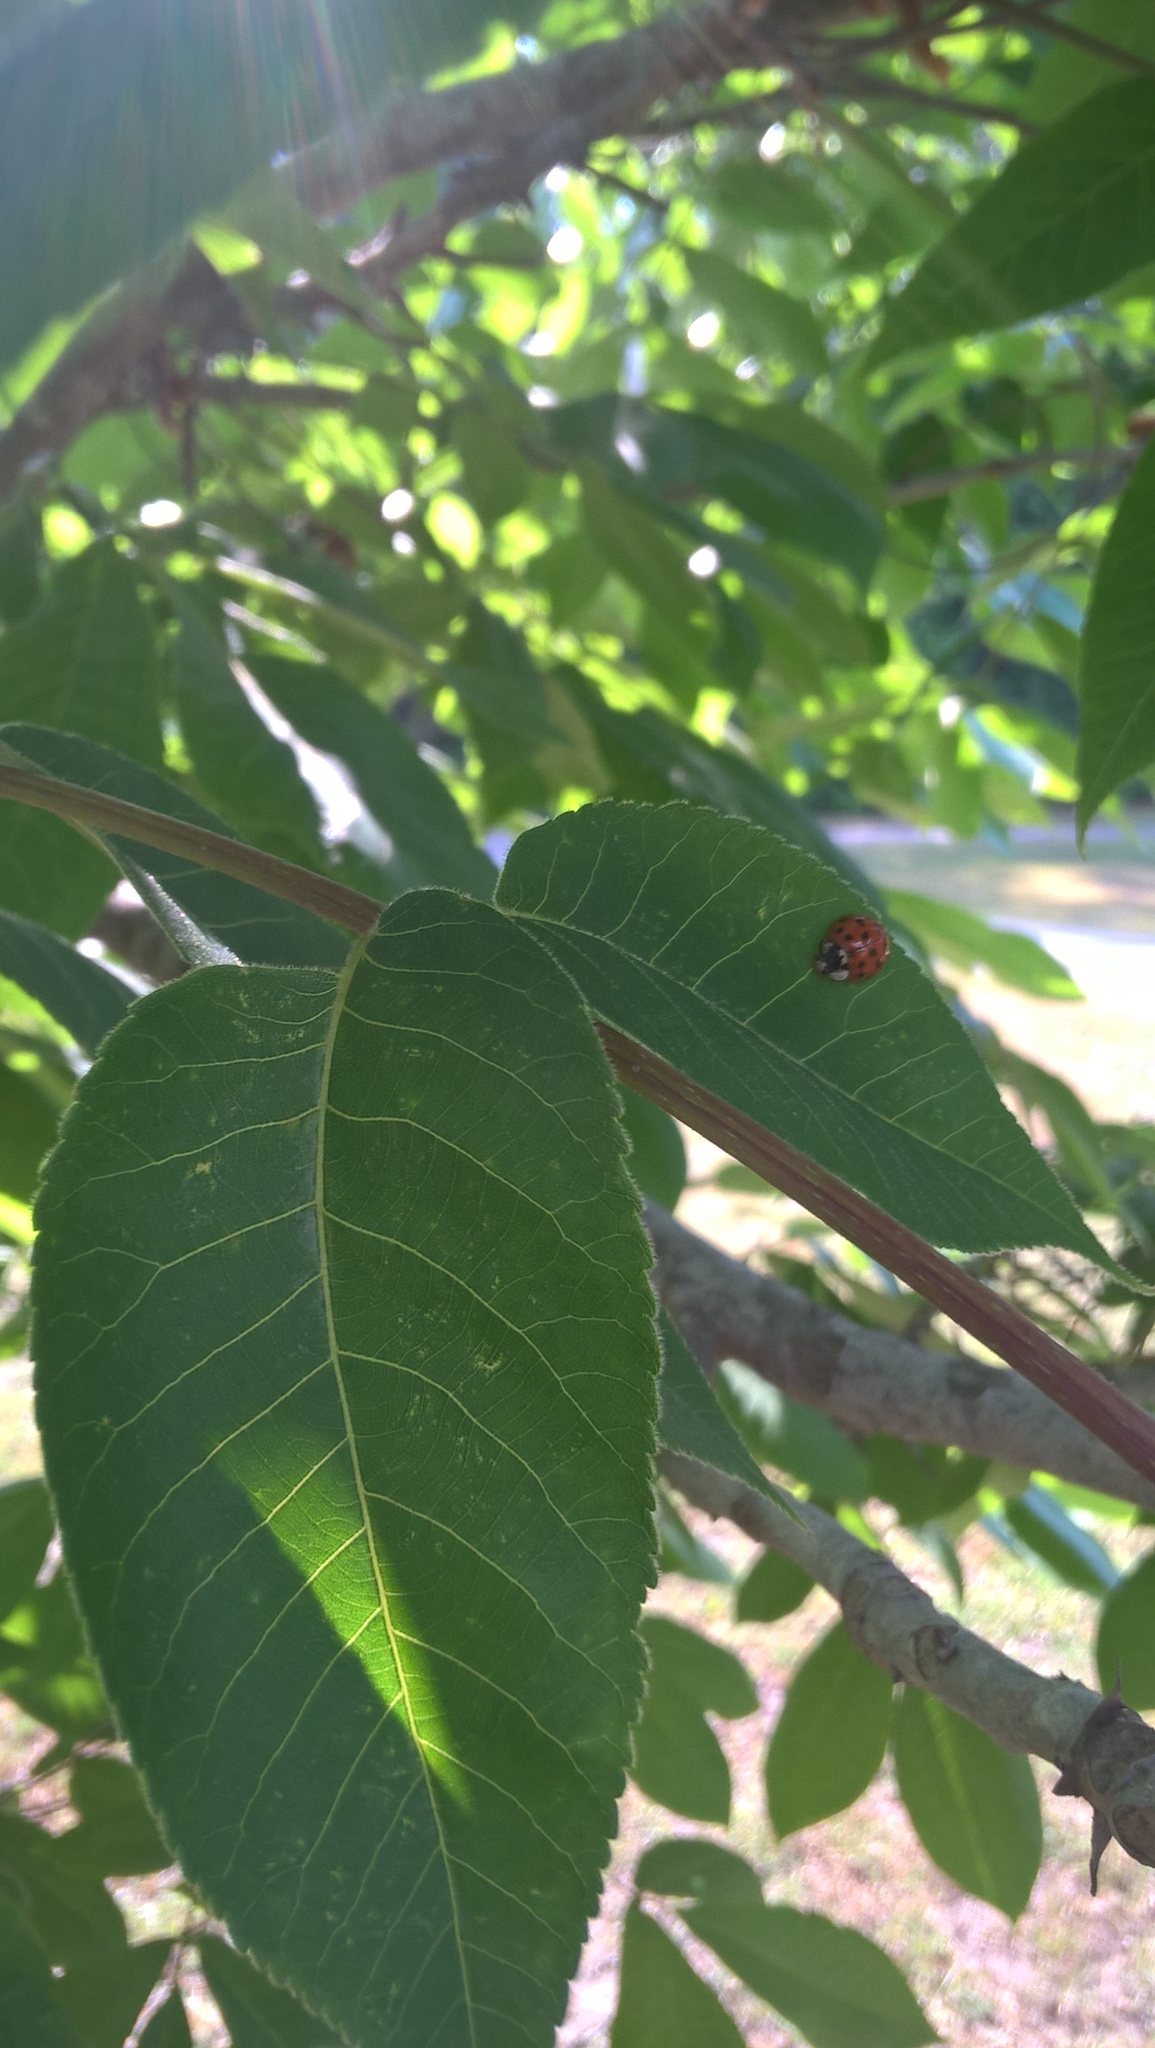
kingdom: Animalia
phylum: Arthropoda
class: Insecta
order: Coleoptera
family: Coccinellidae
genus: Harmonia
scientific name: Harmonia axyridis
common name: Harlequin ladybird
